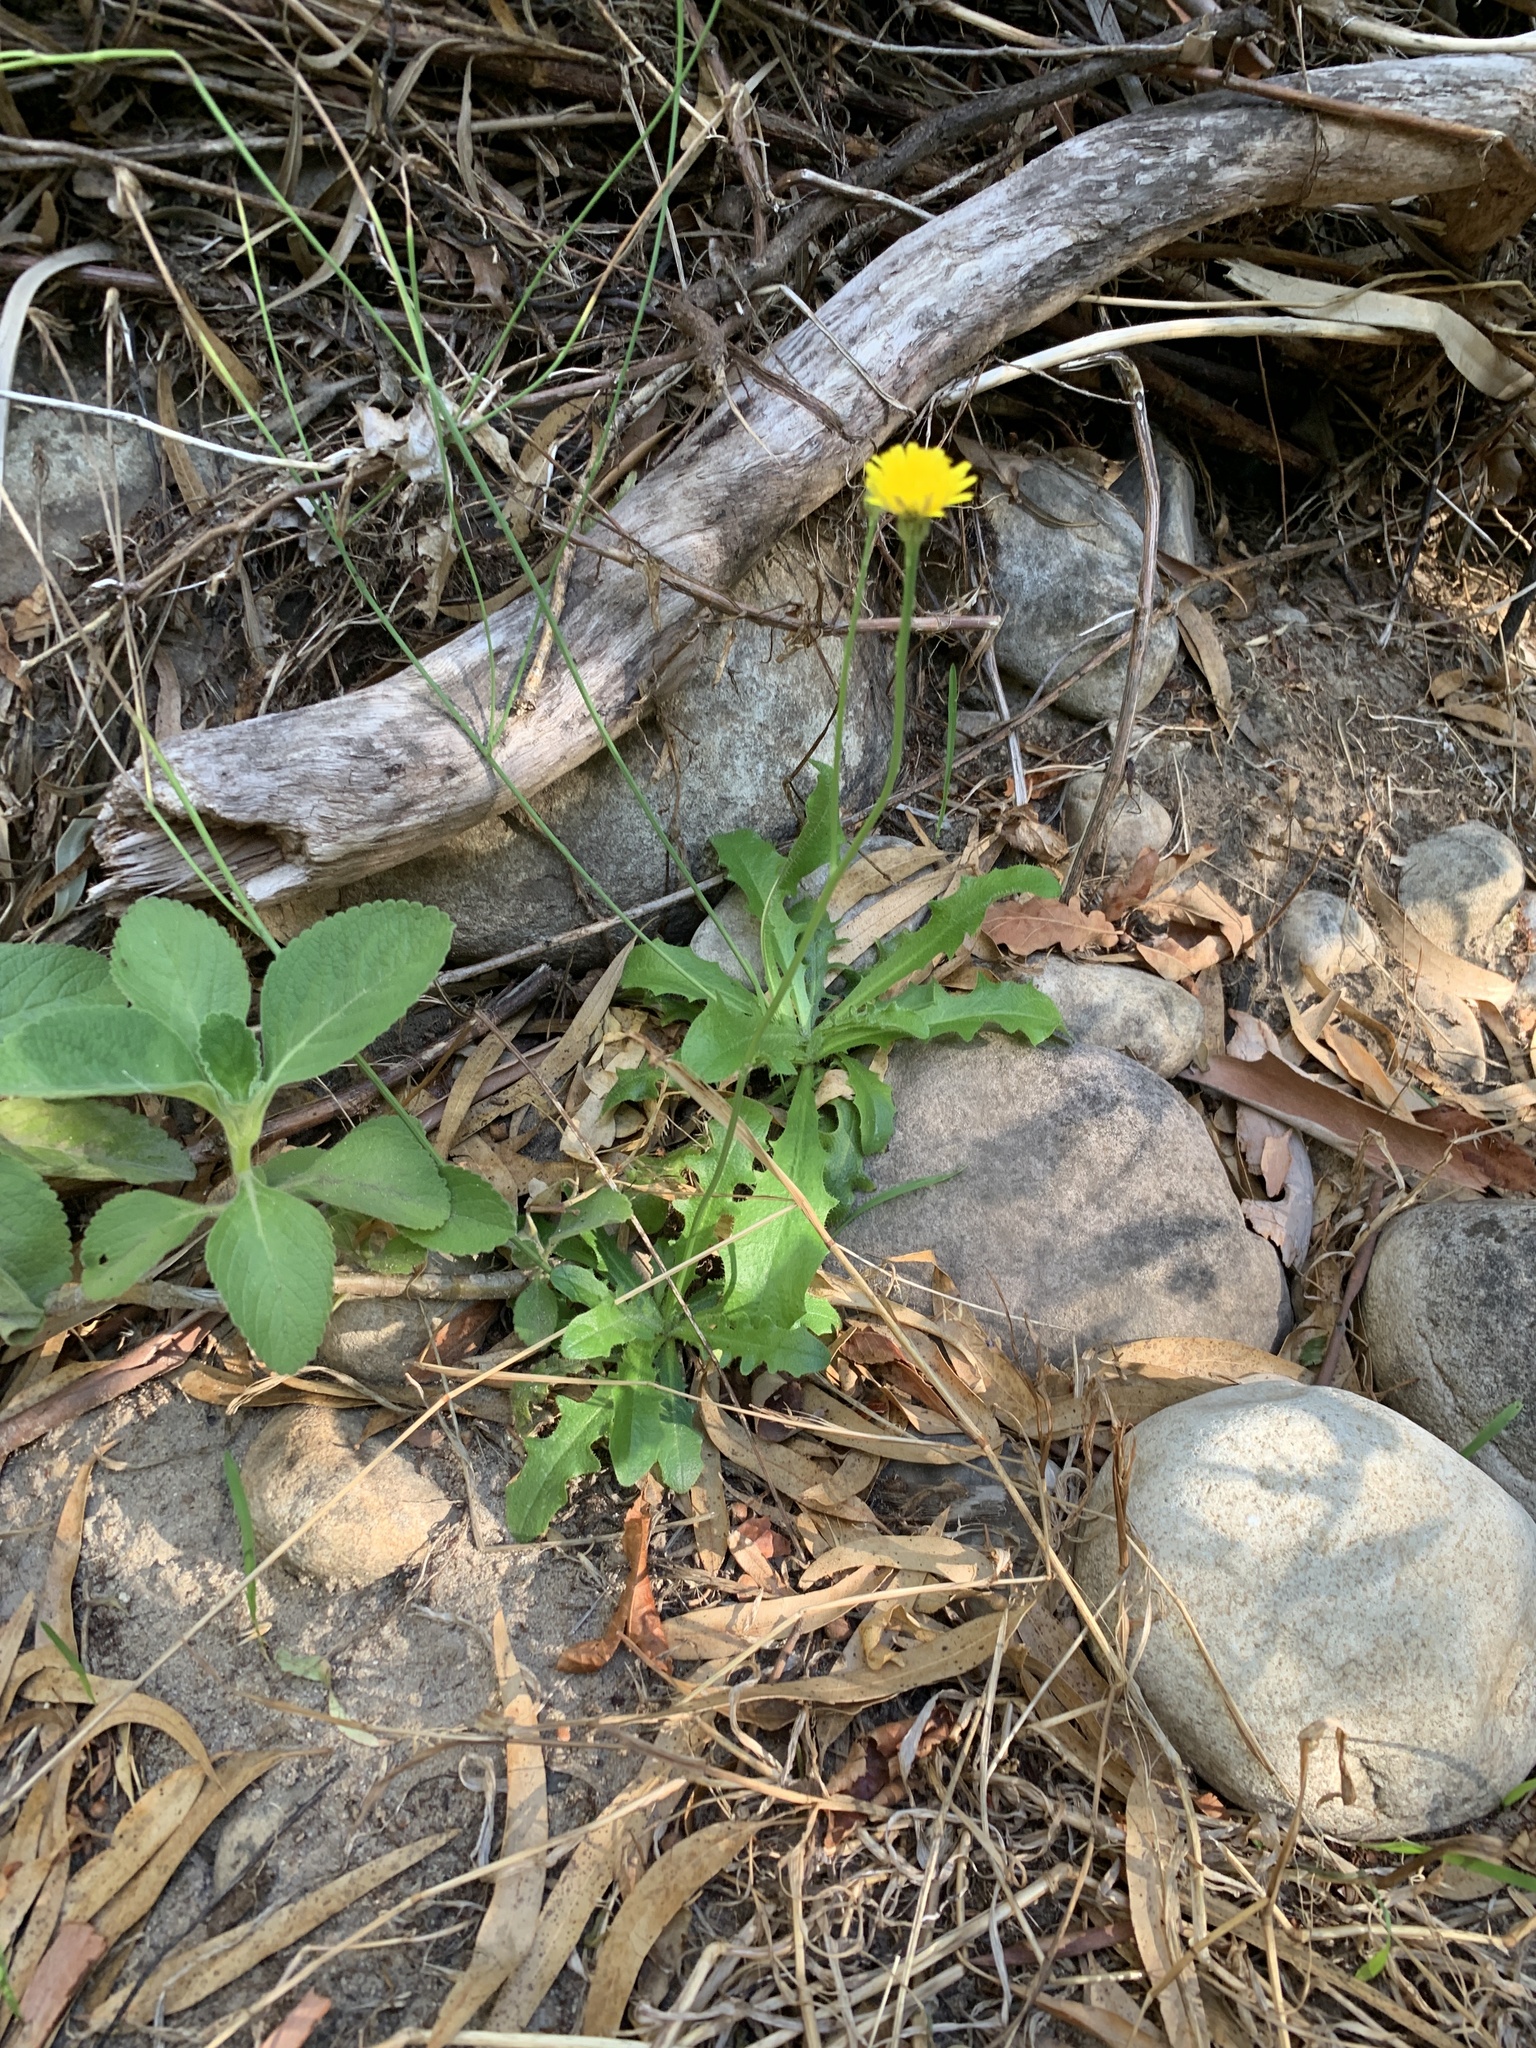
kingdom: Plantae
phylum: Tracheophyta
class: Magnoliopsida
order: Asterales
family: Asteraceae
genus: Hypochaeris
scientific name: Hypochaeris radicata
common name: Flatweed
